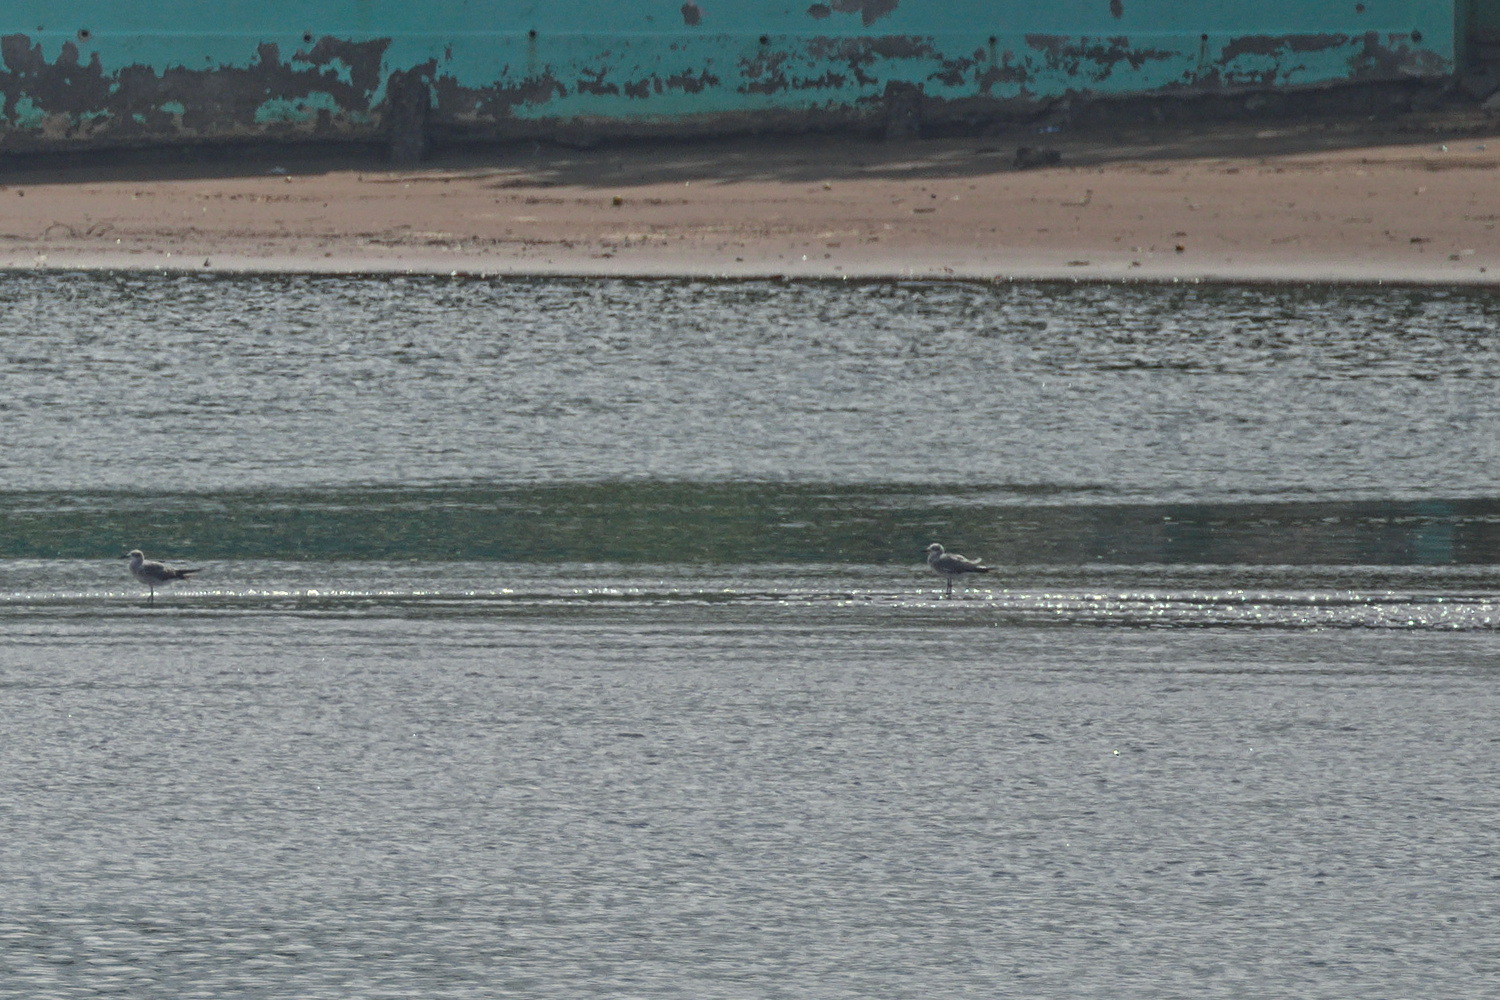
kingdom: Animalia
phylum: Chordata
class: Aves
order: Charadriiformes
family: Laridae
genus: Leucophaeus
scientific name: Leucophaeus atricilla
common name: Laughing gull
